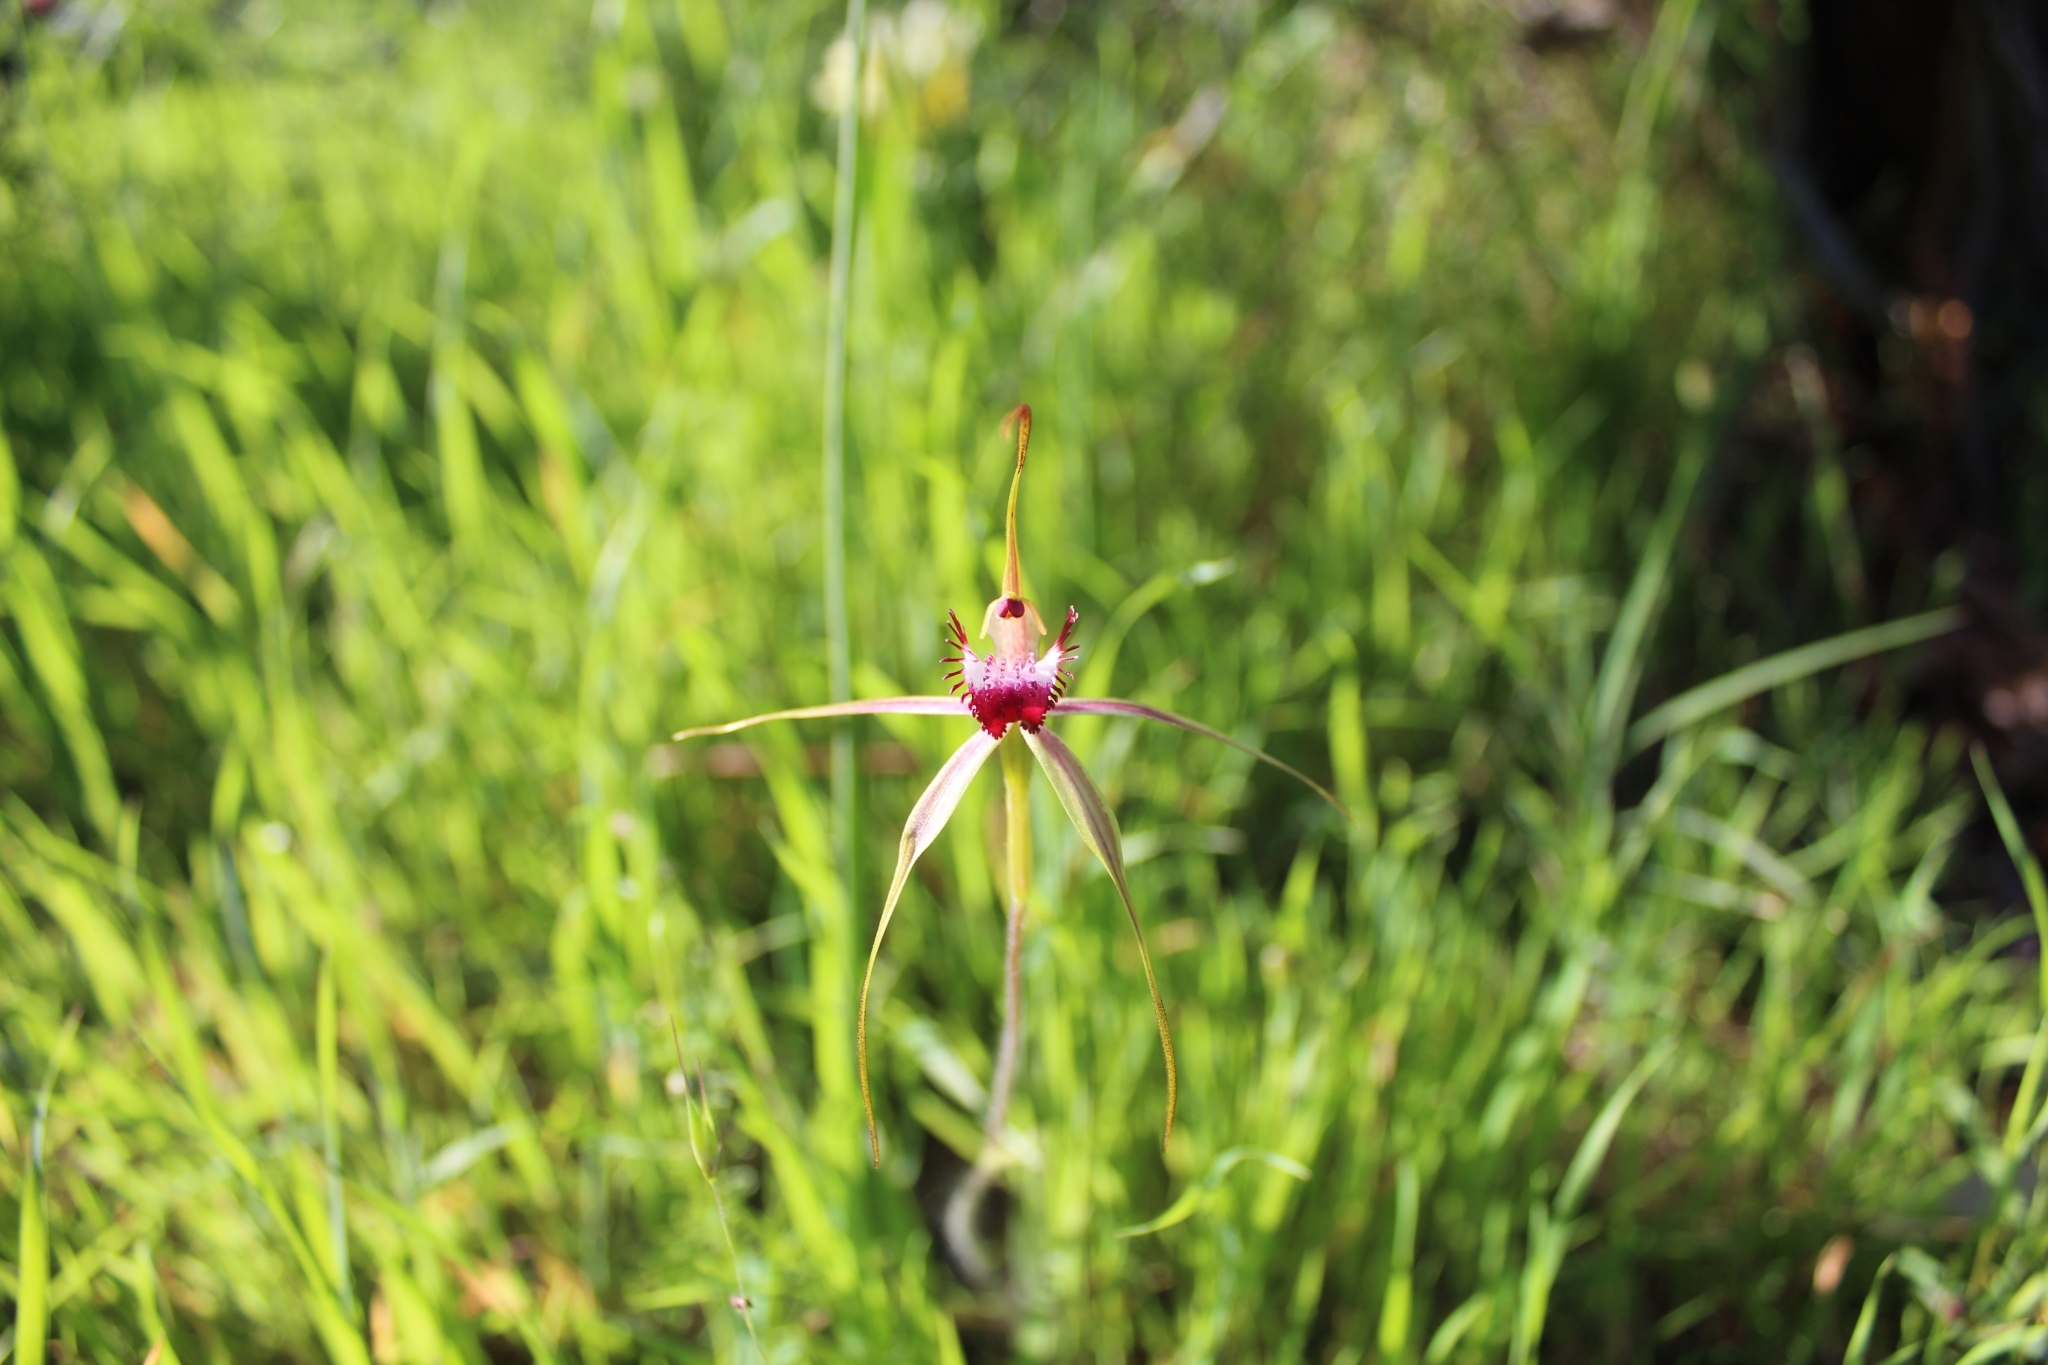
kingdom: Plantae
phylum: Tracheophyta
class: Liliopsida
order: Asparagales
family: Orchidaceae
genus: Caladenia
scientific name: Caladenia arenicola
